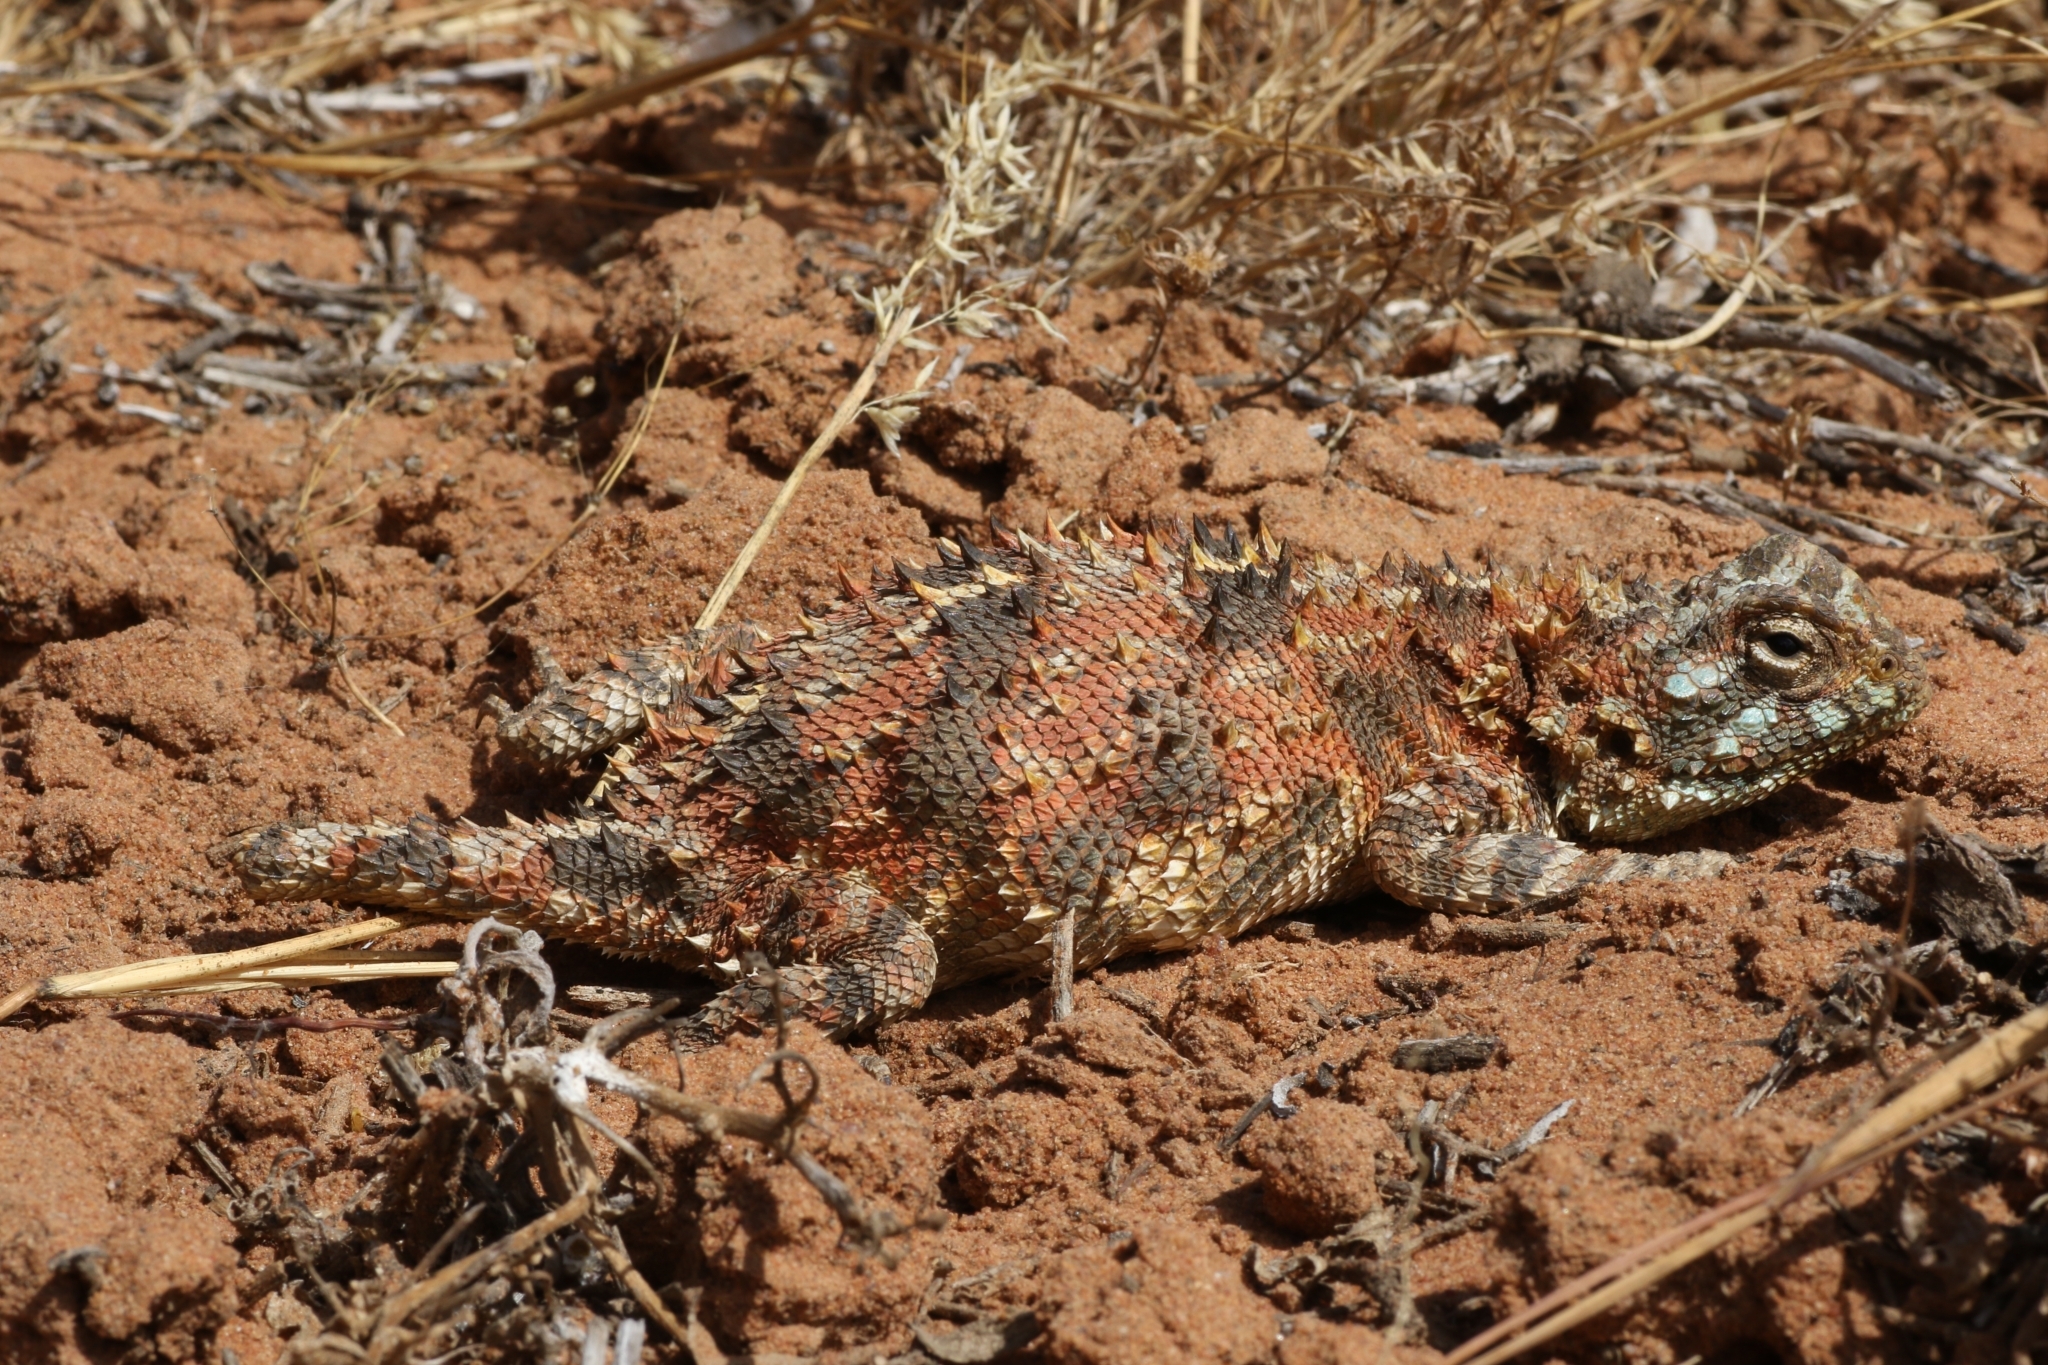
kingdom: Animalia
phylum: Chordata
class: Squamata
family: Agamidae
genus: Agama
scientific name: Agama hispida
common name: Common spiny agama
